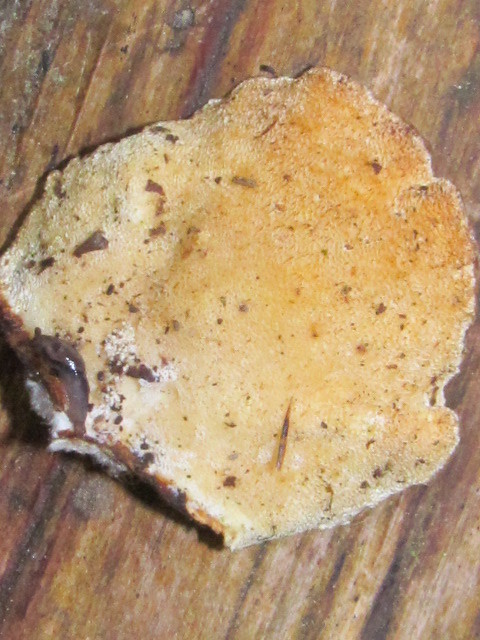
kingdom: Fungi
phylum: Basidiomycota
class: Agaricomycetes
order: Polyporales
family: Polyporaceae
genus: Trametes
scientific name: Trametes versicolor
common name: Turkeytail
